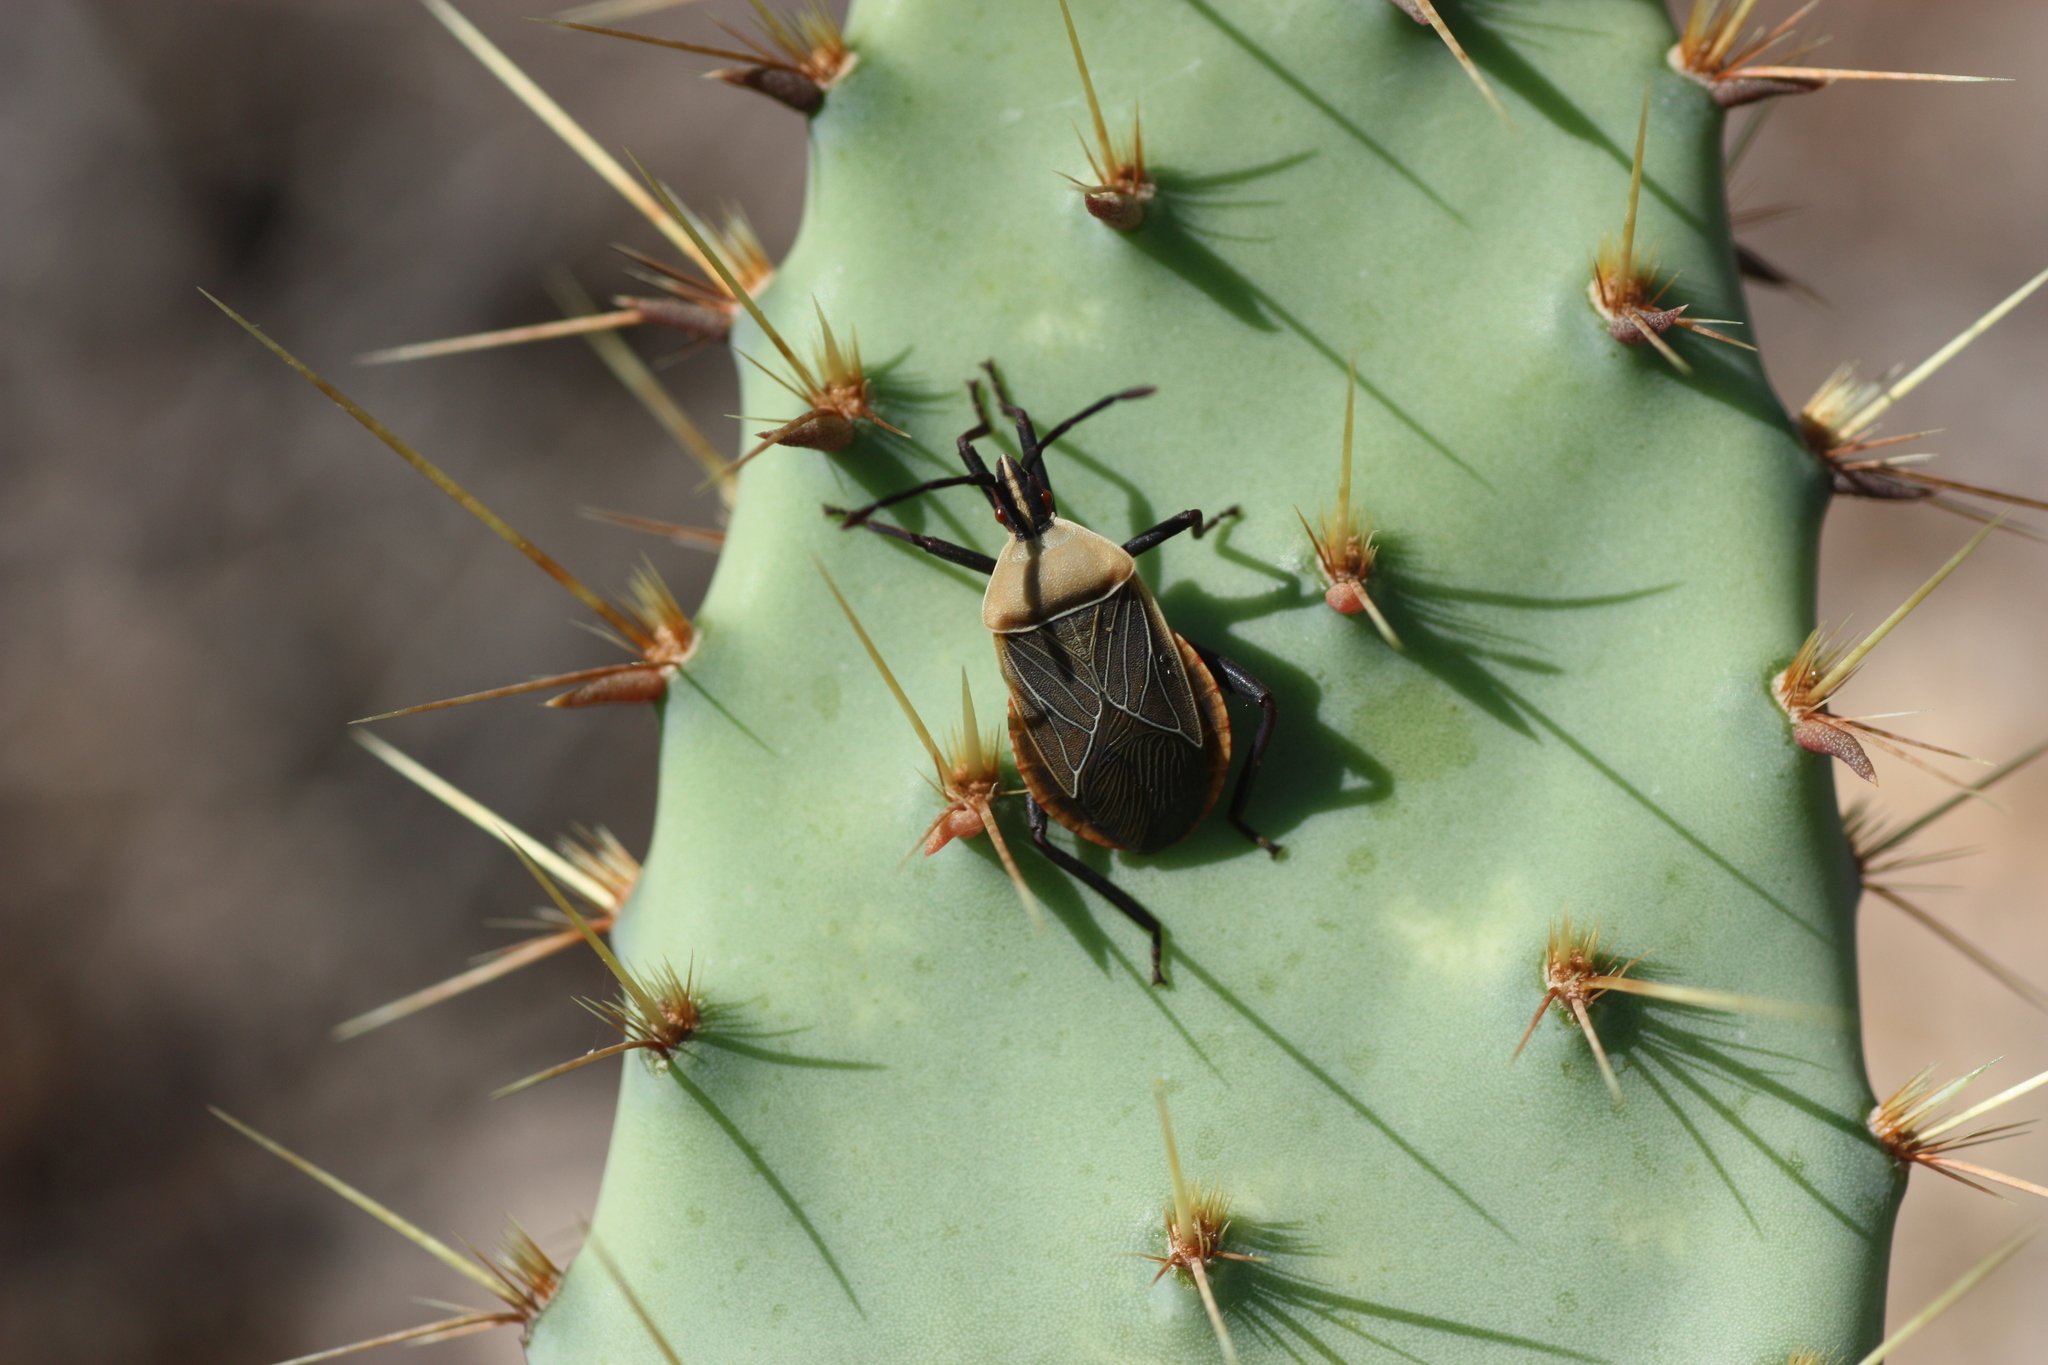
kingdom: Animalia
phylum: Arthropoda
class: Insecta
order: Hemiptera
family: Coreidae
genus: Chelinidea
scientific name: Chelinidea vittiger
